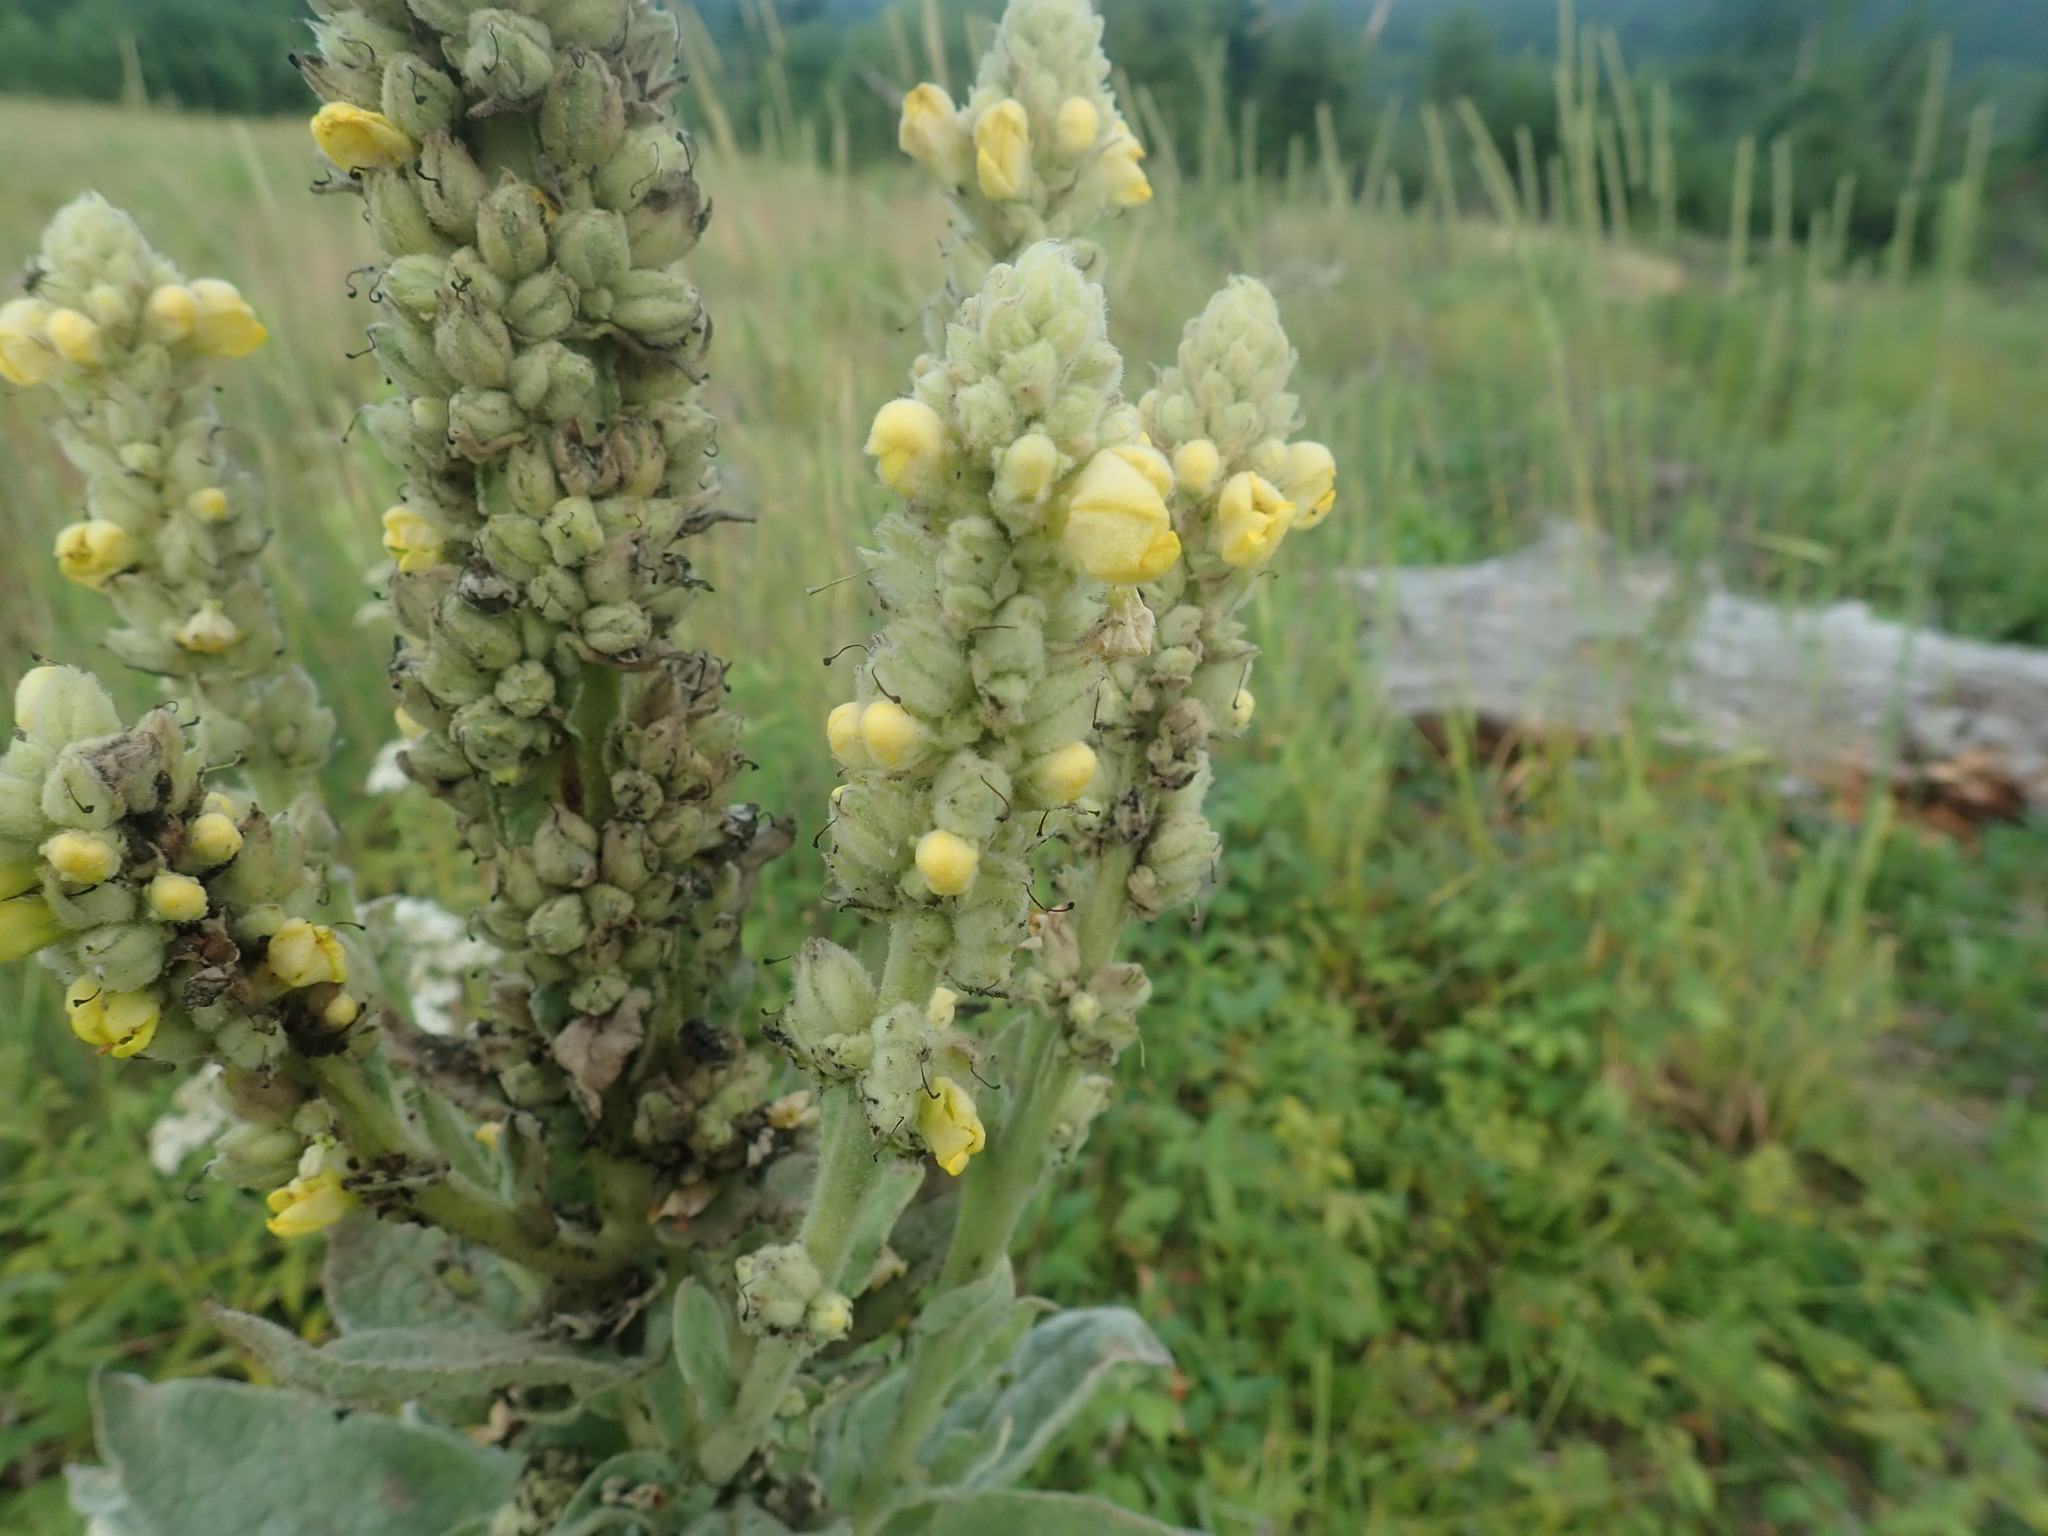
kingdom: Plantae
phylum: Tracheophyta
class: Magnoliopsida
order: Lamiales
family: Scrophulariaceae
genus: Verbascum
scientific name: Verbascum thapsus
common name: Common mullein
